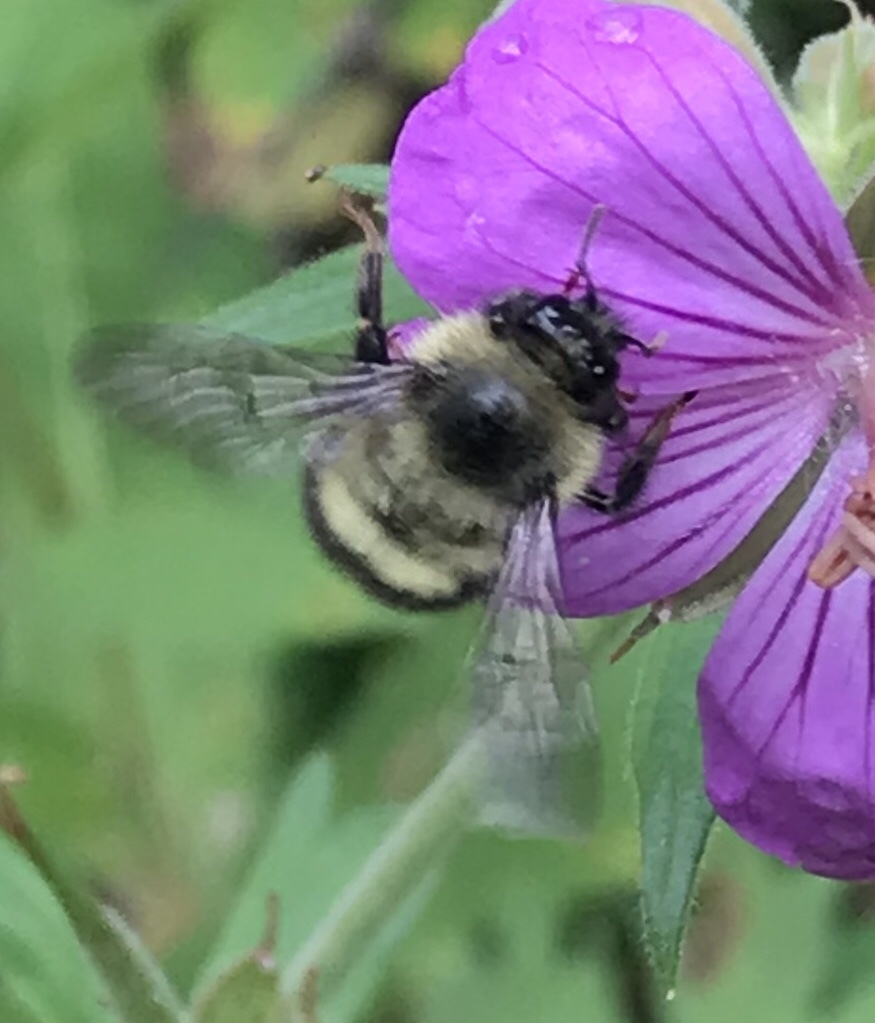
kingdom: Animalia
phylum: Arthropoda
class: Insecta
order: Hymenoptera
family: Apidae
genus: Bombus
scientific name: Bombus mixtus
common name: Fuzzy-horned bumble bee
